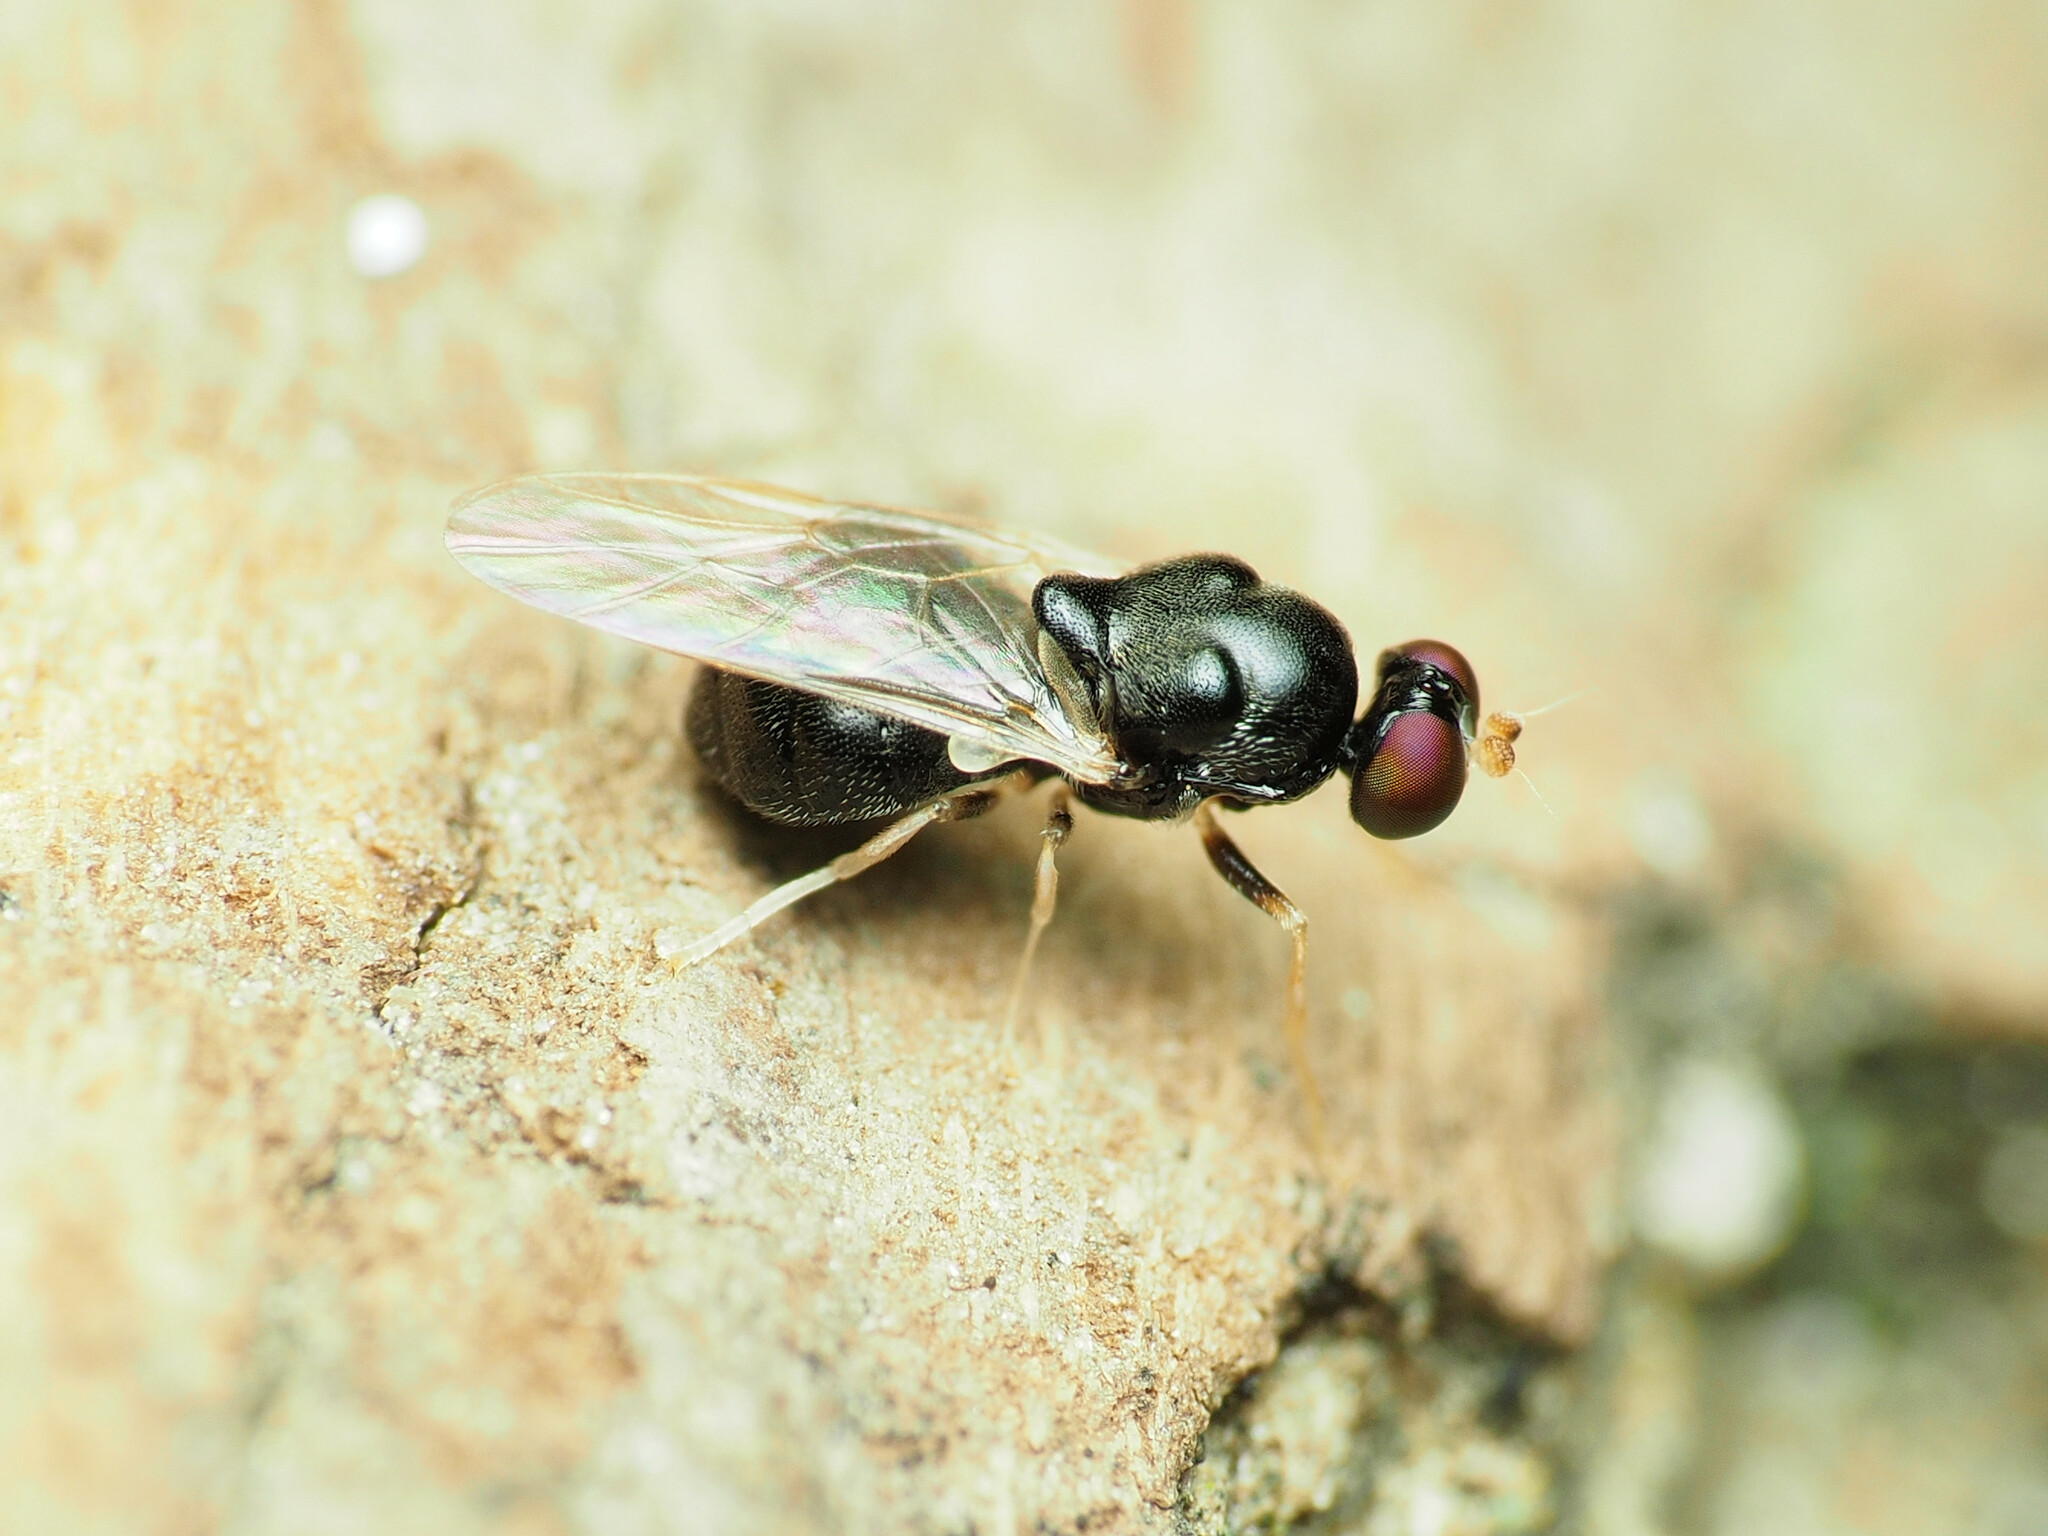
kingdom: Animalia
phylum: Arthropoda
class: Insecta
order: Diptera
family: Stratiomyidae
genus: Pachygaster
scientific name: Pachygaster pulchra
